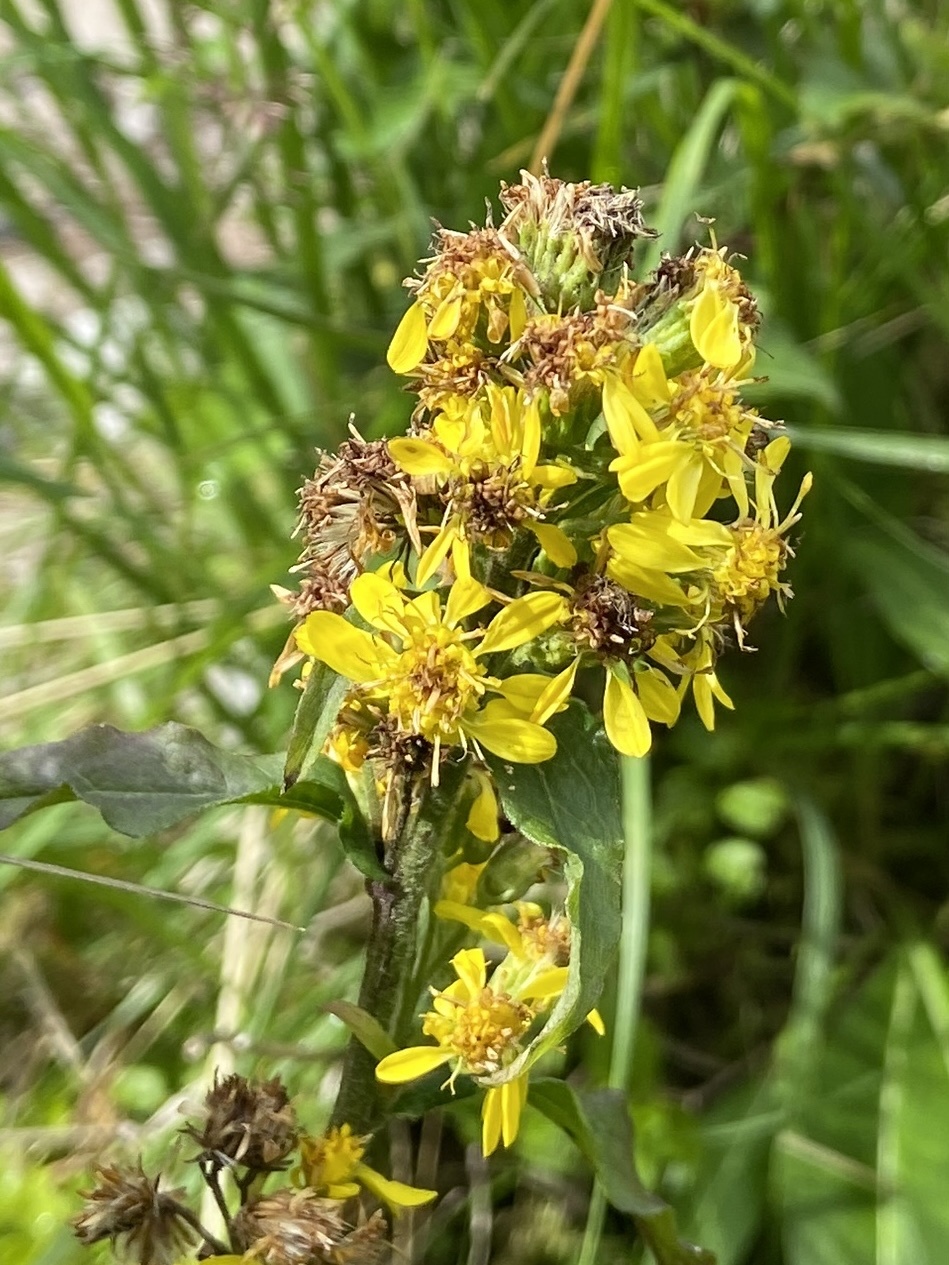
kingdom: Plantae
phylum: Tracheophyta
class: Magnoliopsida
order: Asterales
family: Asteraceae
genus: Solidago
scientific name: Solidago virgaurea
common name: Goldenrod
